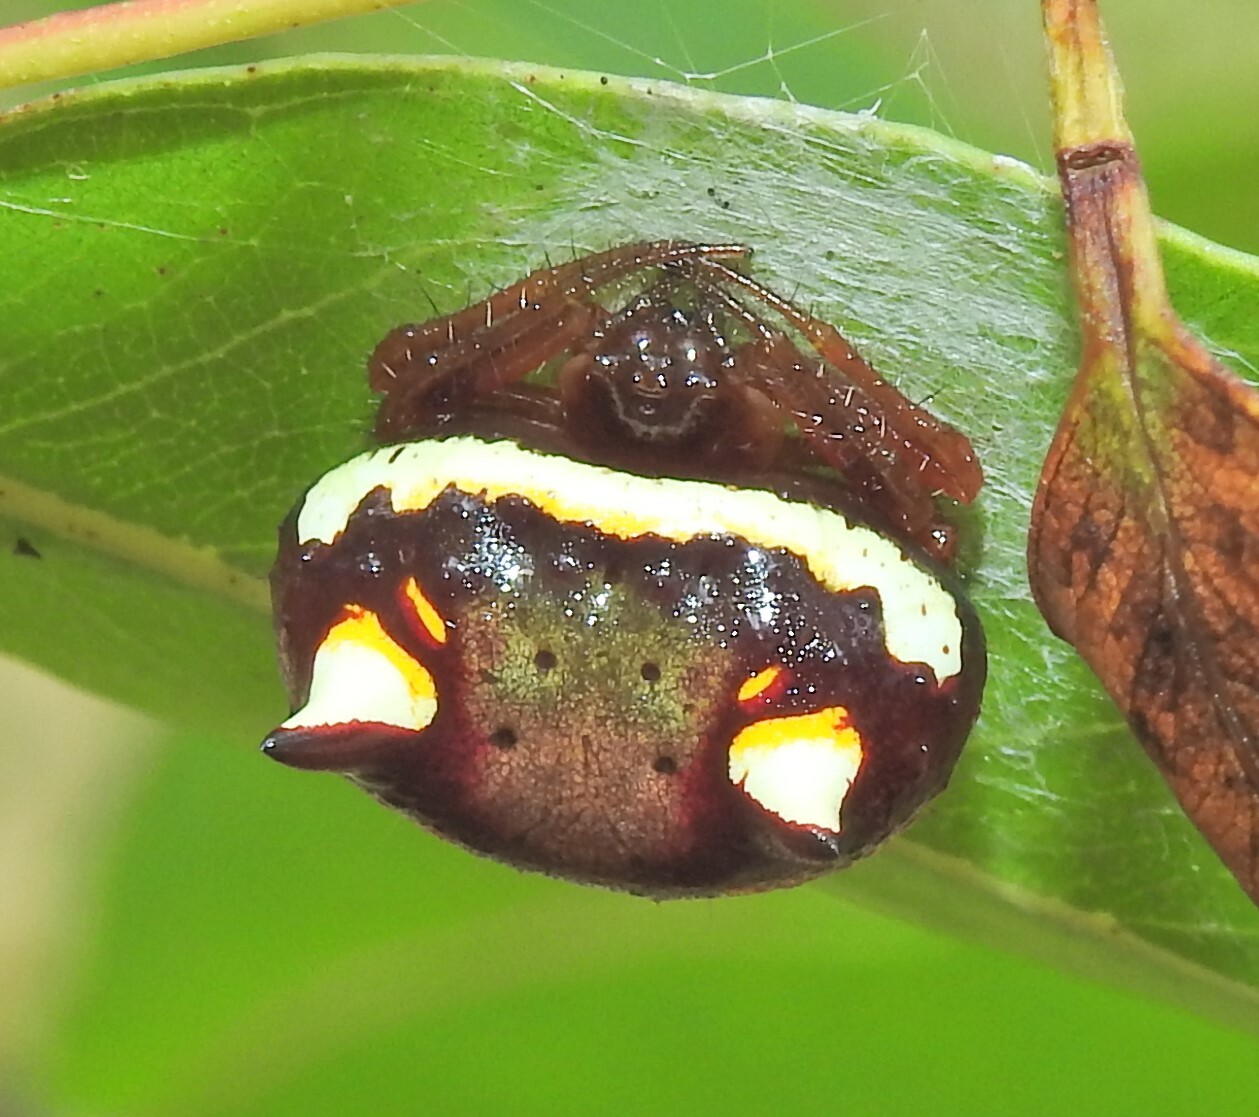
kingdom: Animalia
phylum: Arthropoda
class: Arachnida
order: Araneae
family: Araneidae
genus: Poecilopachys
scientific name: Poecilopachys australasia
